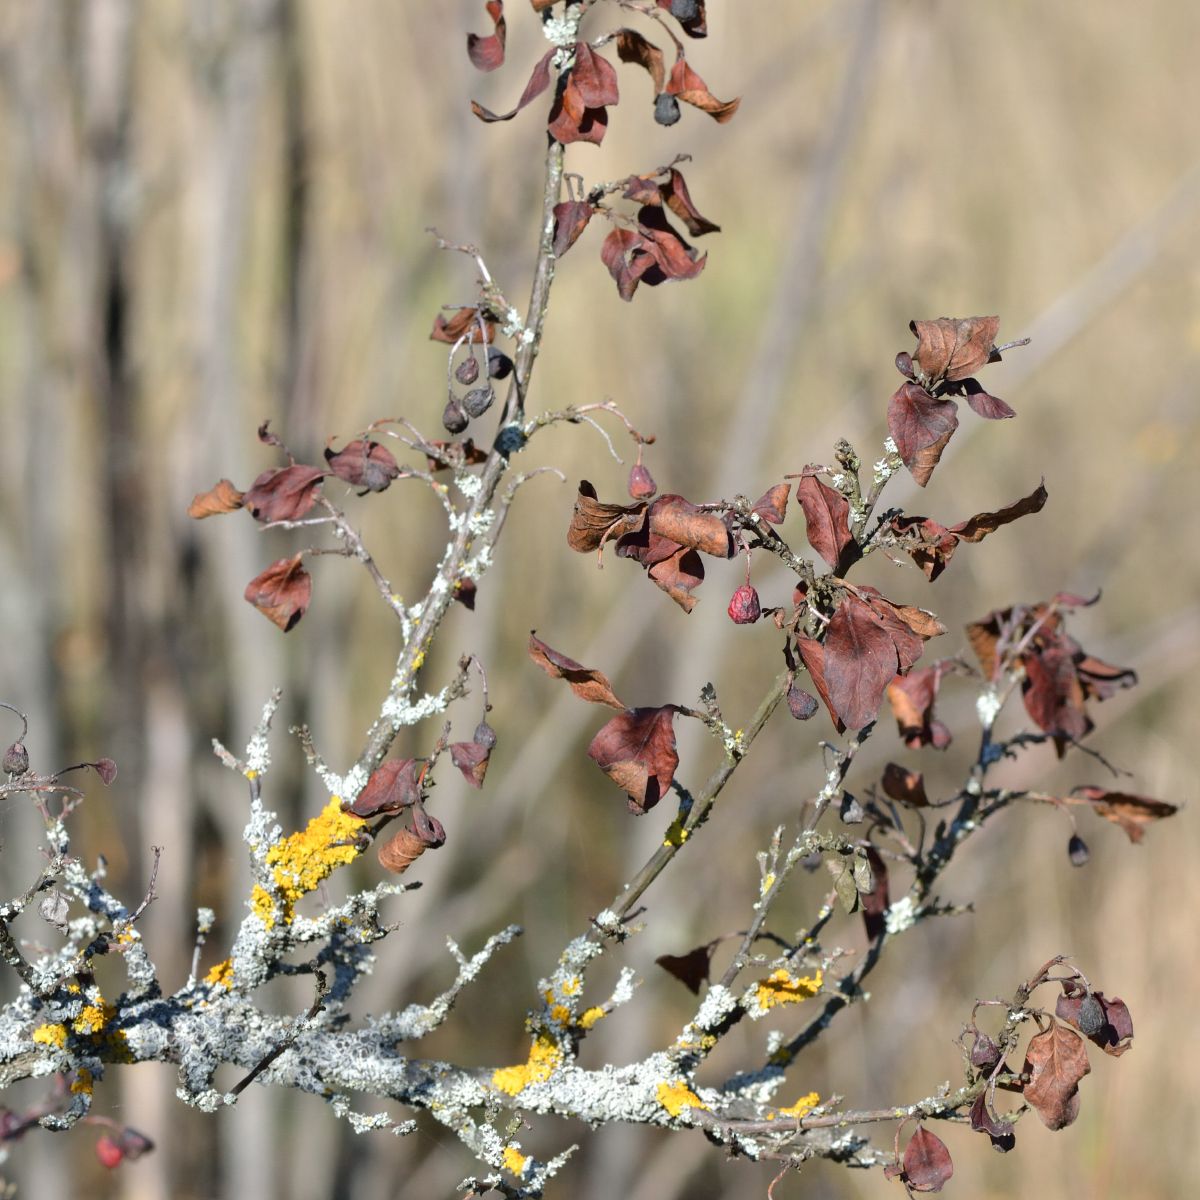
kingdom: Plantae
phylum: Tracheophyta
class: Magnoliopsida
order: Rosales
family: Rosaceae
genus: Cotoneaster
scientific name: Cotoneaster acutifolius
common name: Peking cotoneaster
